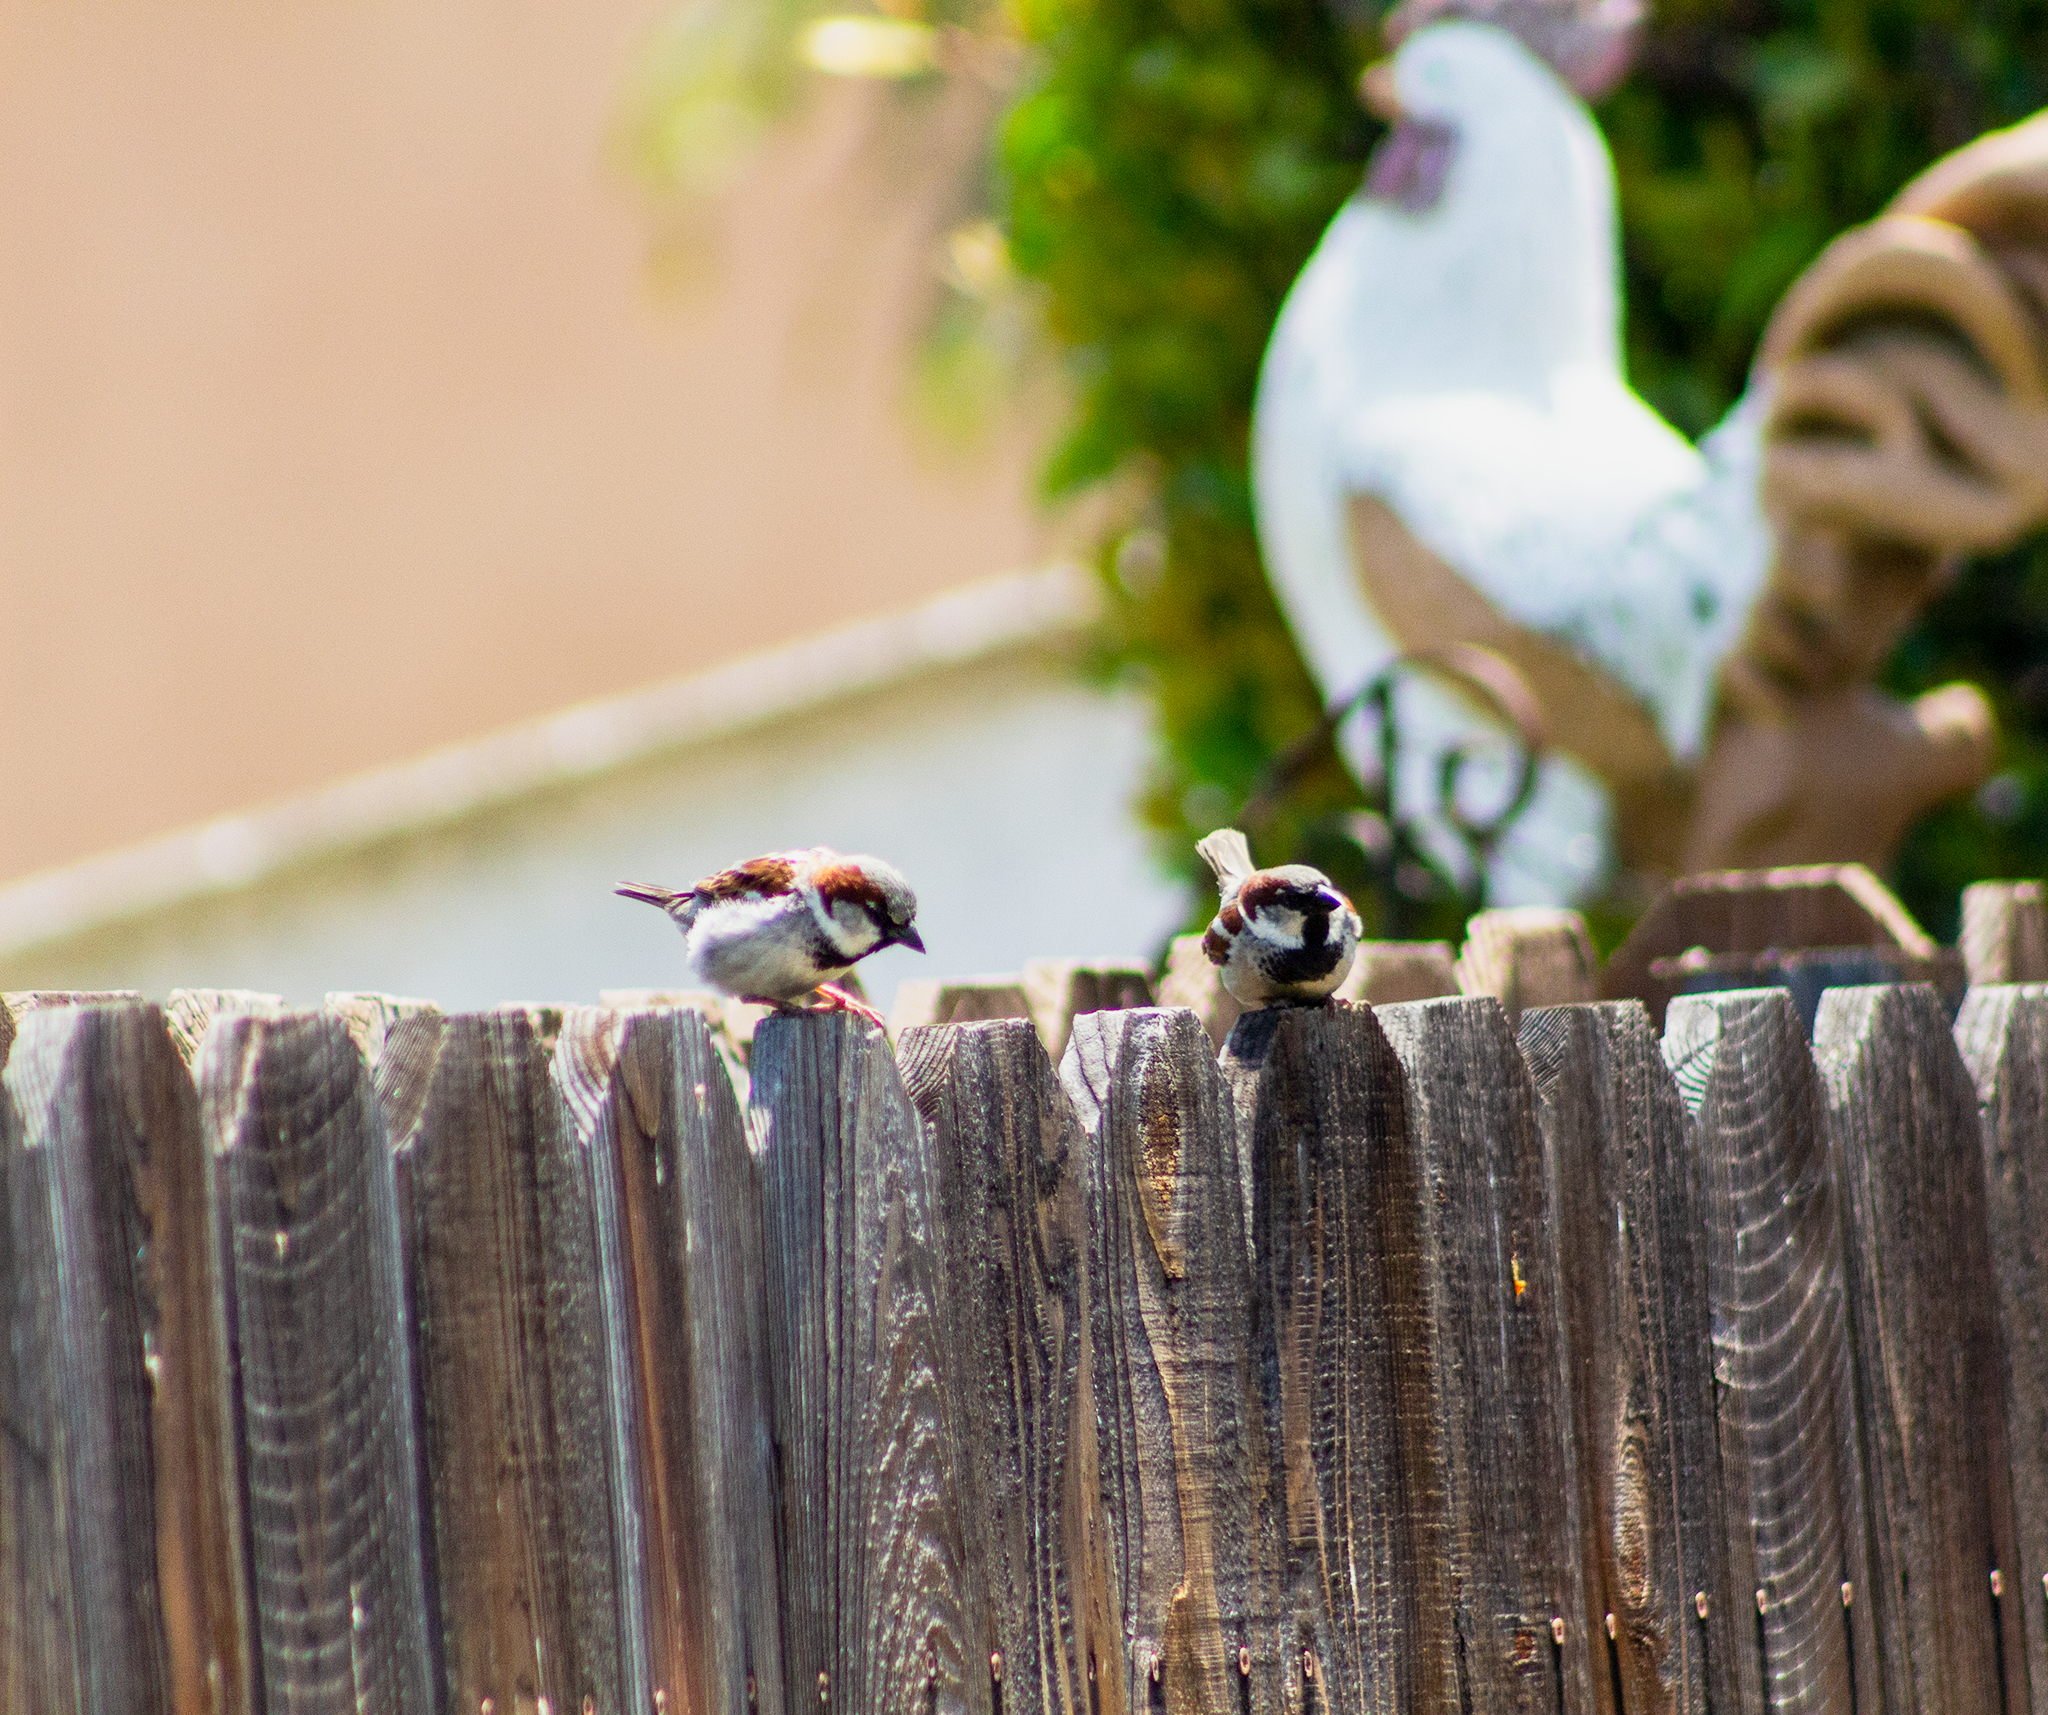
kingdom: Animalia
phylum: Chordata
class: Aves
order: Passeriformes
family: Passeridae
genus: Passer
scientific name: Passer domesticus
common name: House sparrow
